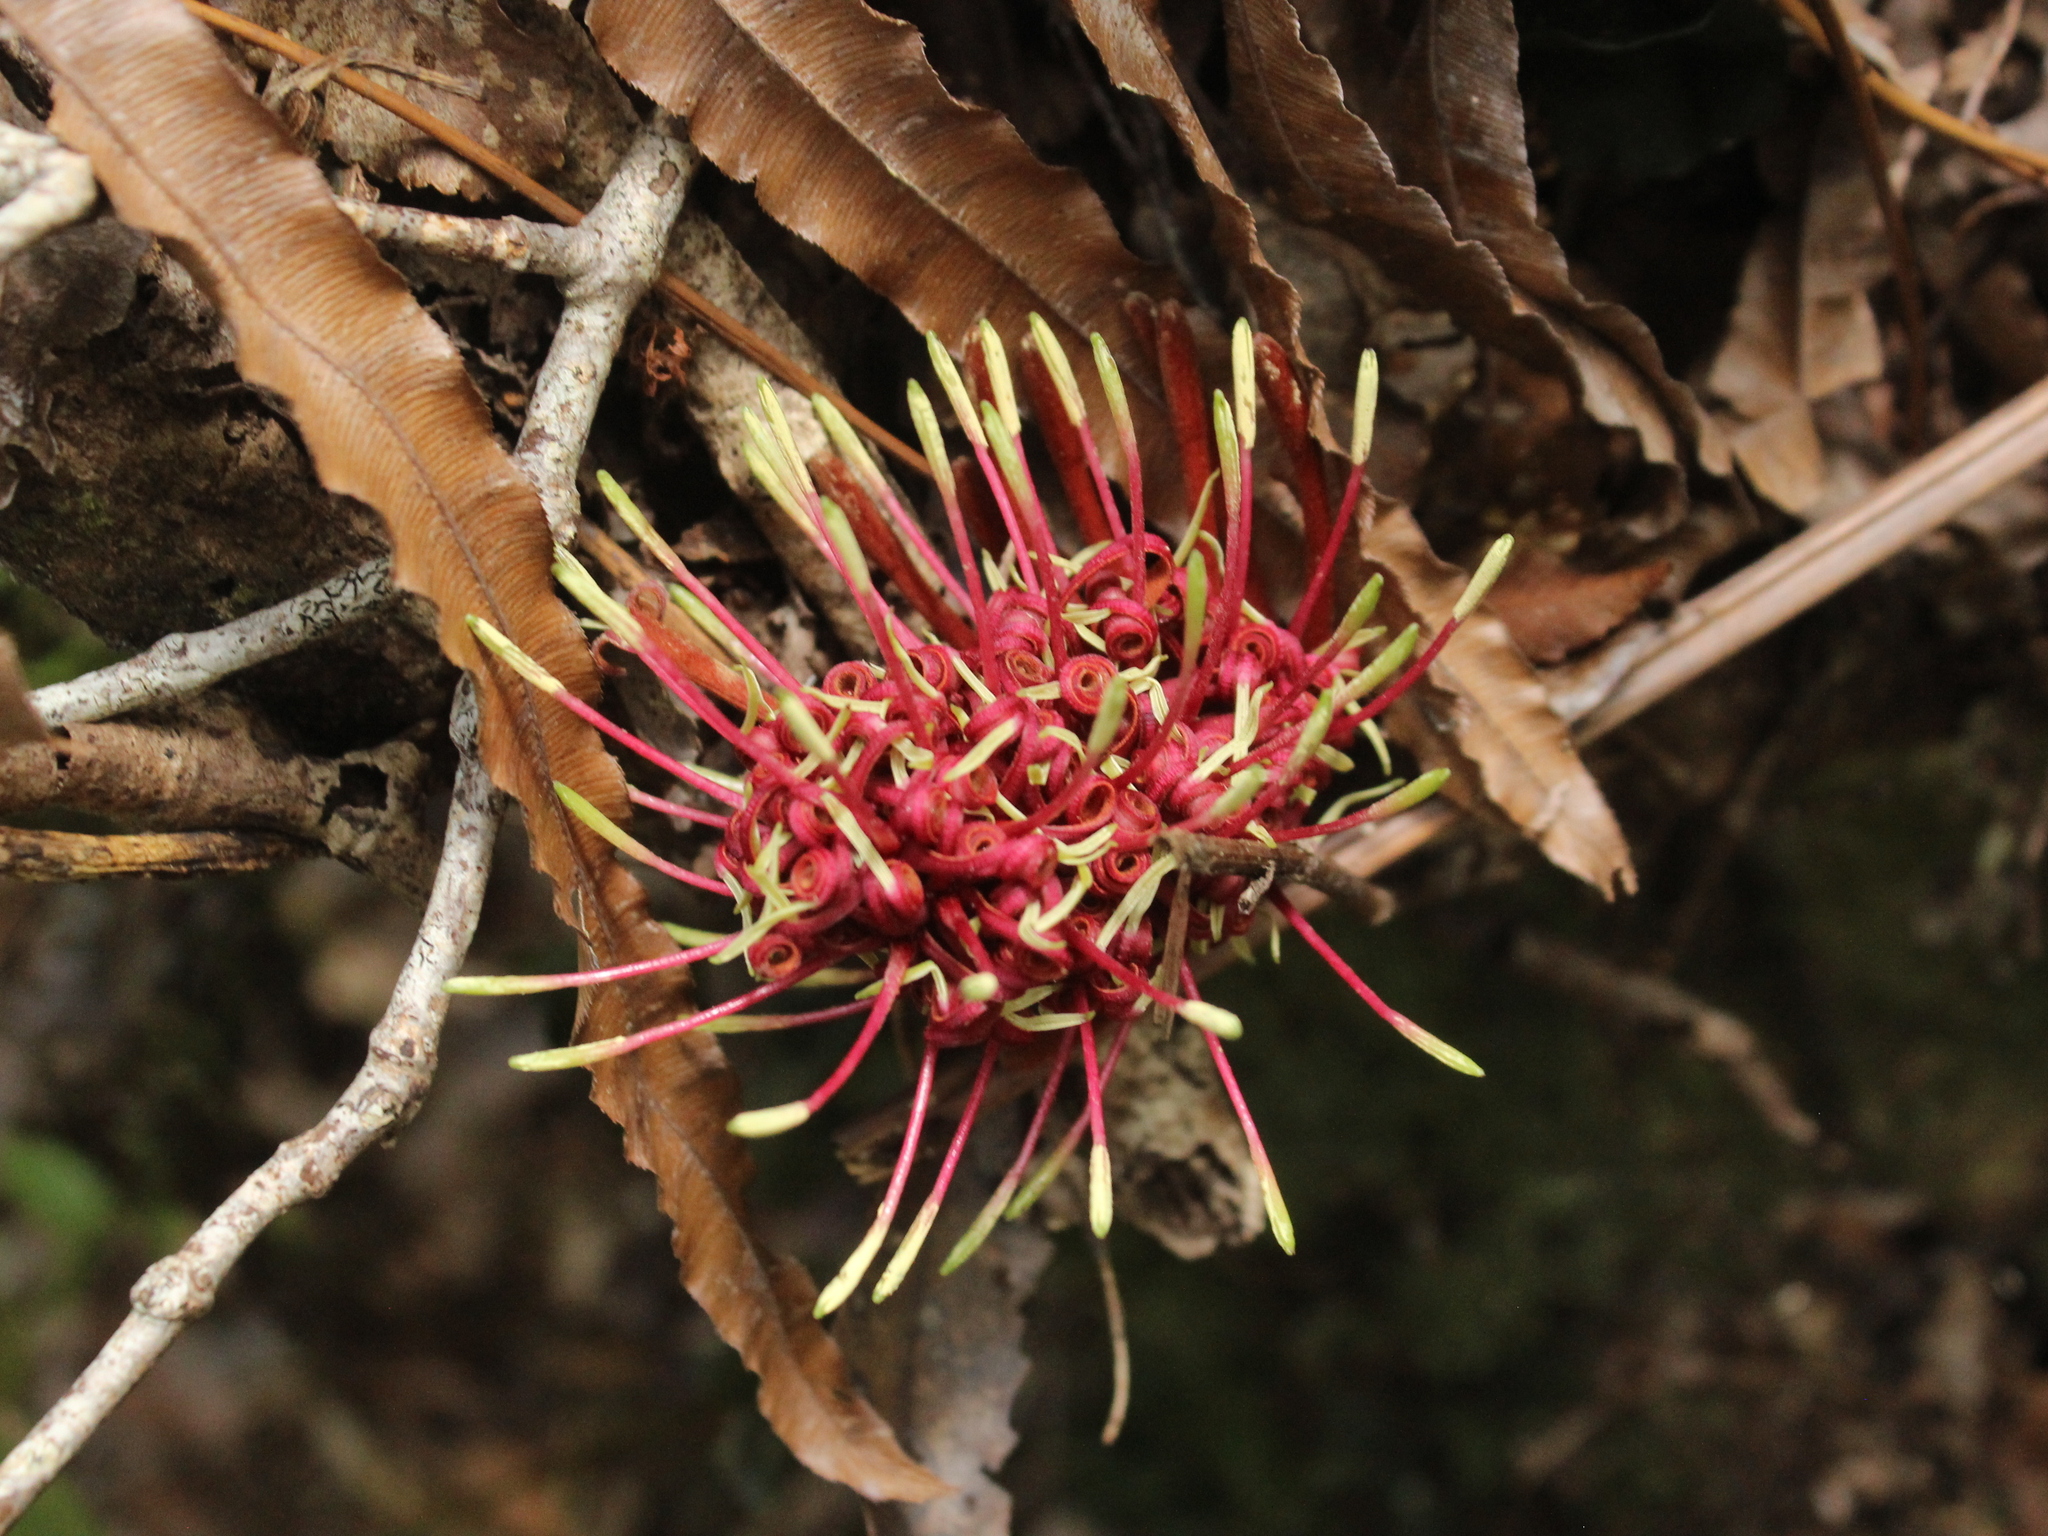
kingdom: Plantae
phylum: Tracheophyta
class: Magnoliopsida
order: Proteales
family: Proteaceae
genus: Knightia
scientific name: Knightia excelsa
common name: New zealand-honeysuckle
